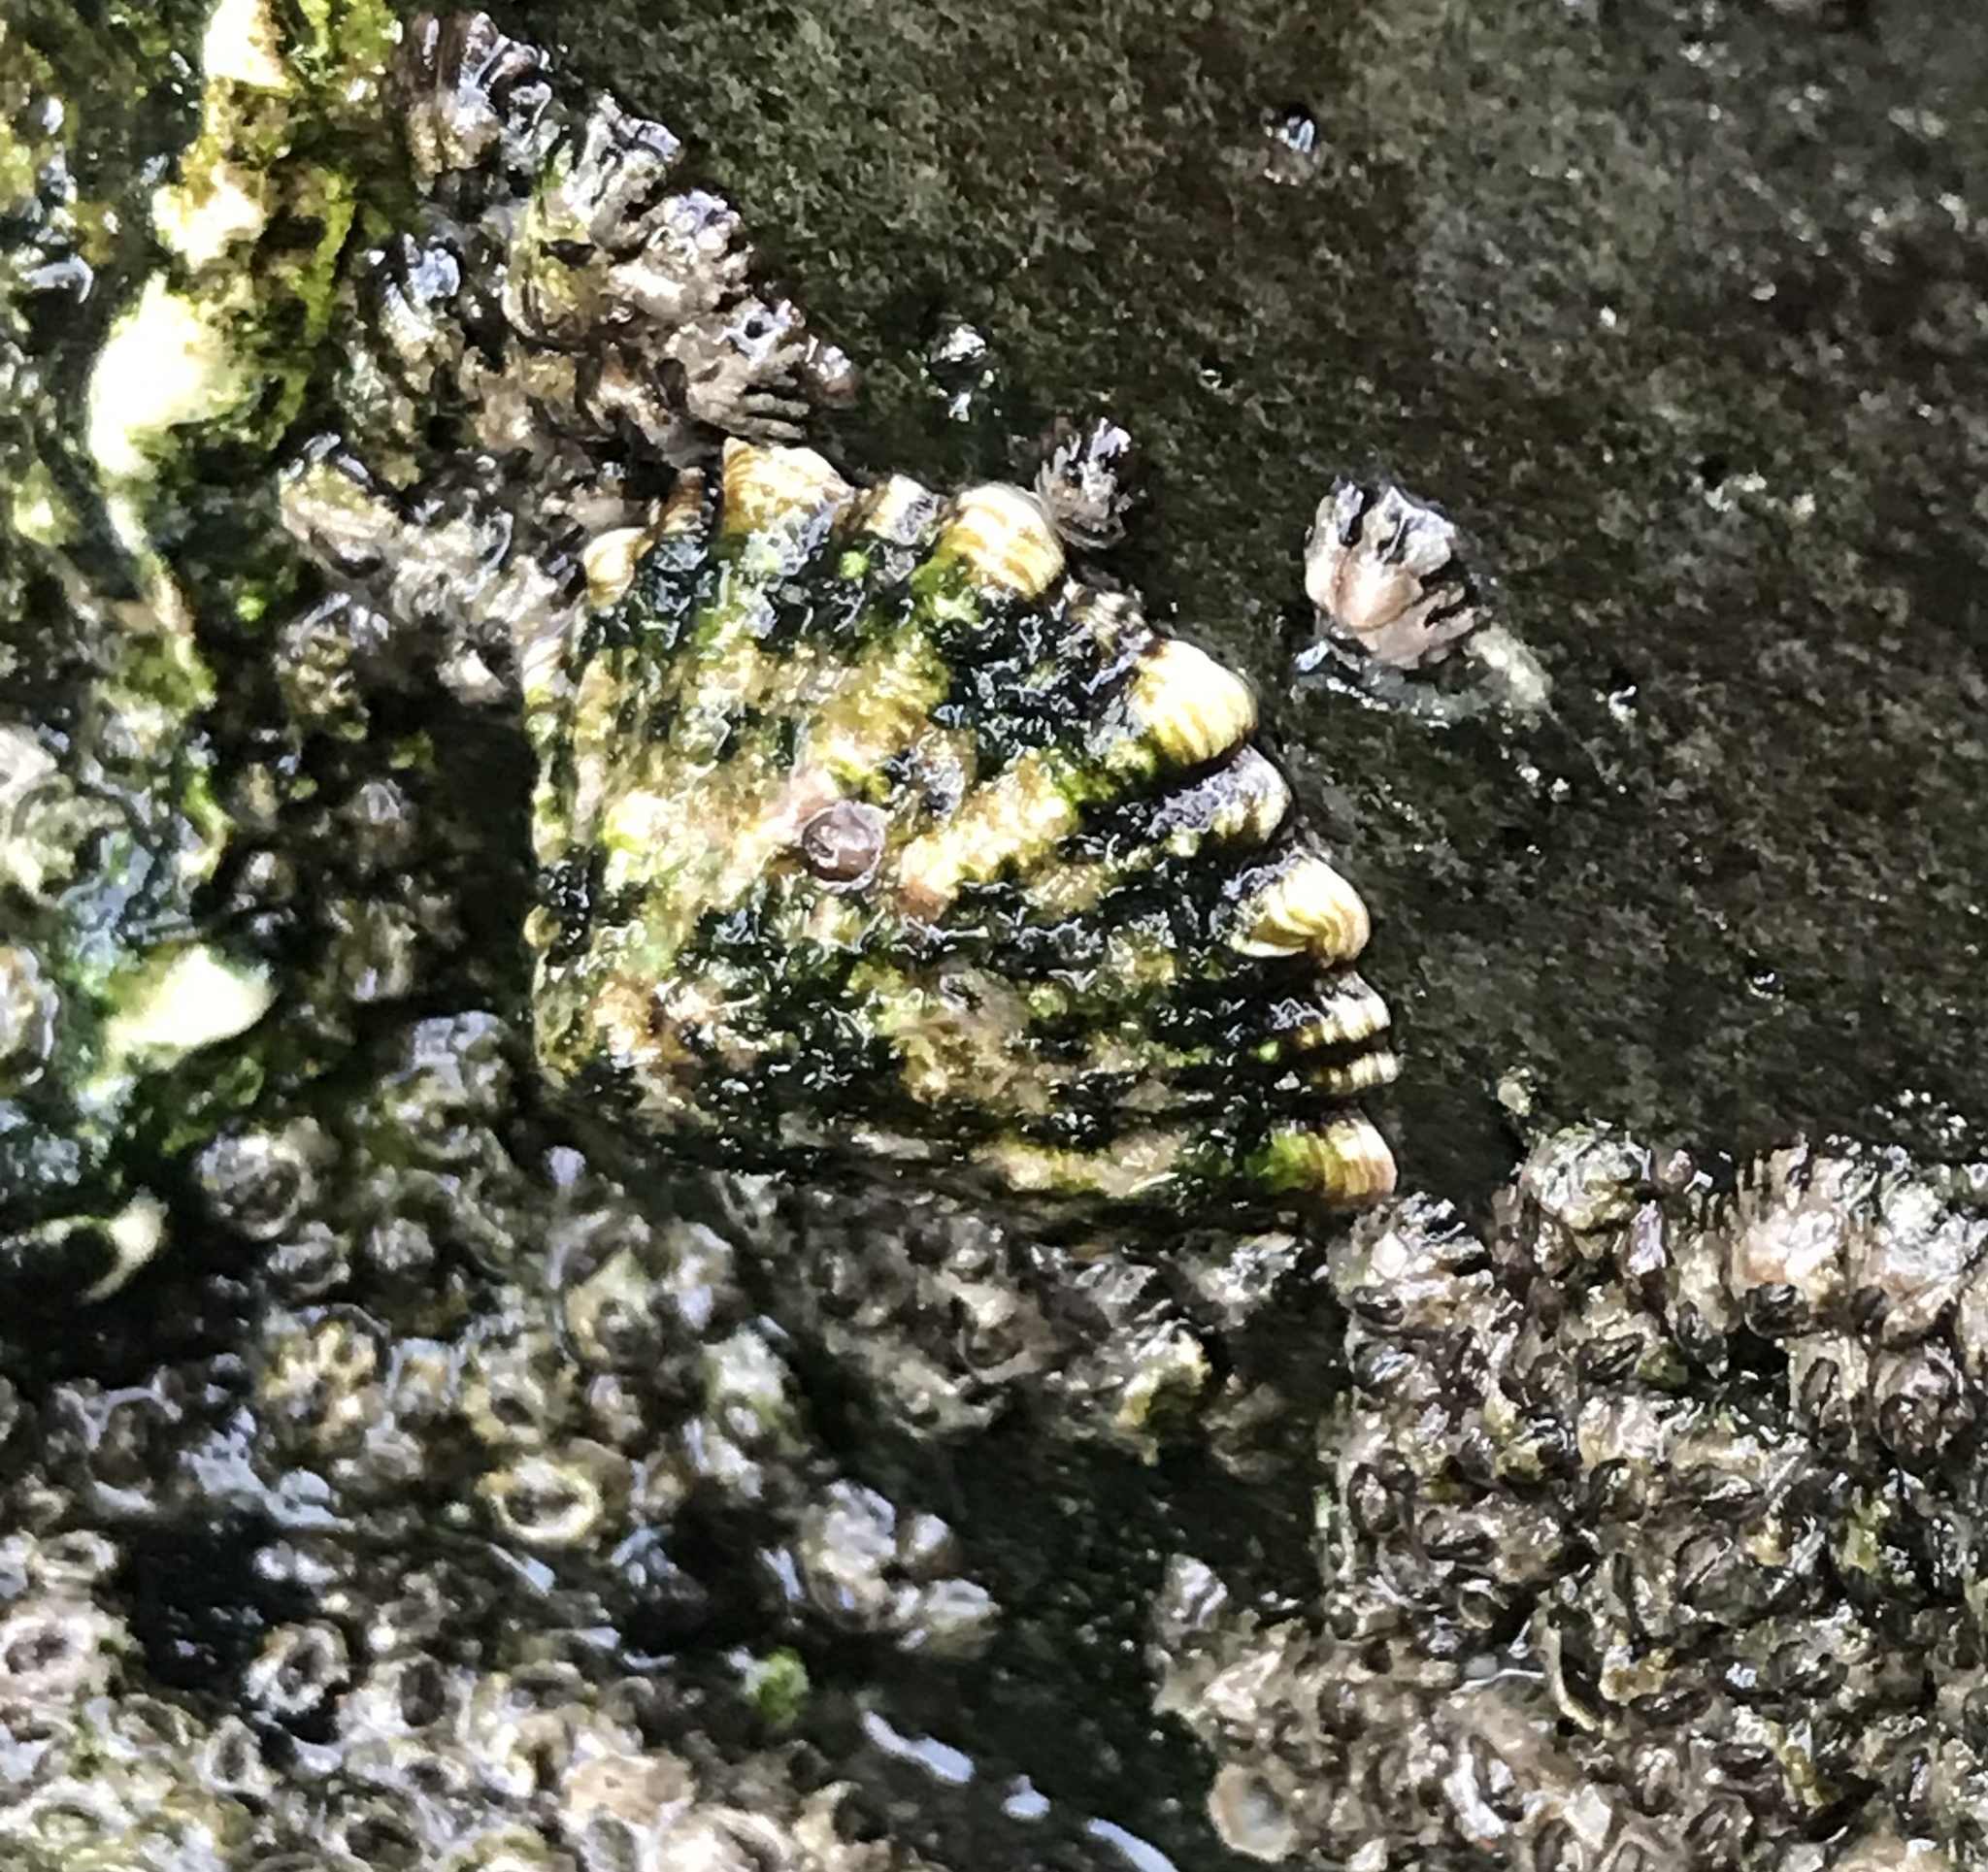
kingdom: Animalia
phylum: Mollusca
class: Gastropoda
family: Lottiidae
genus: Lottia
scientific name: Lottia scabra
